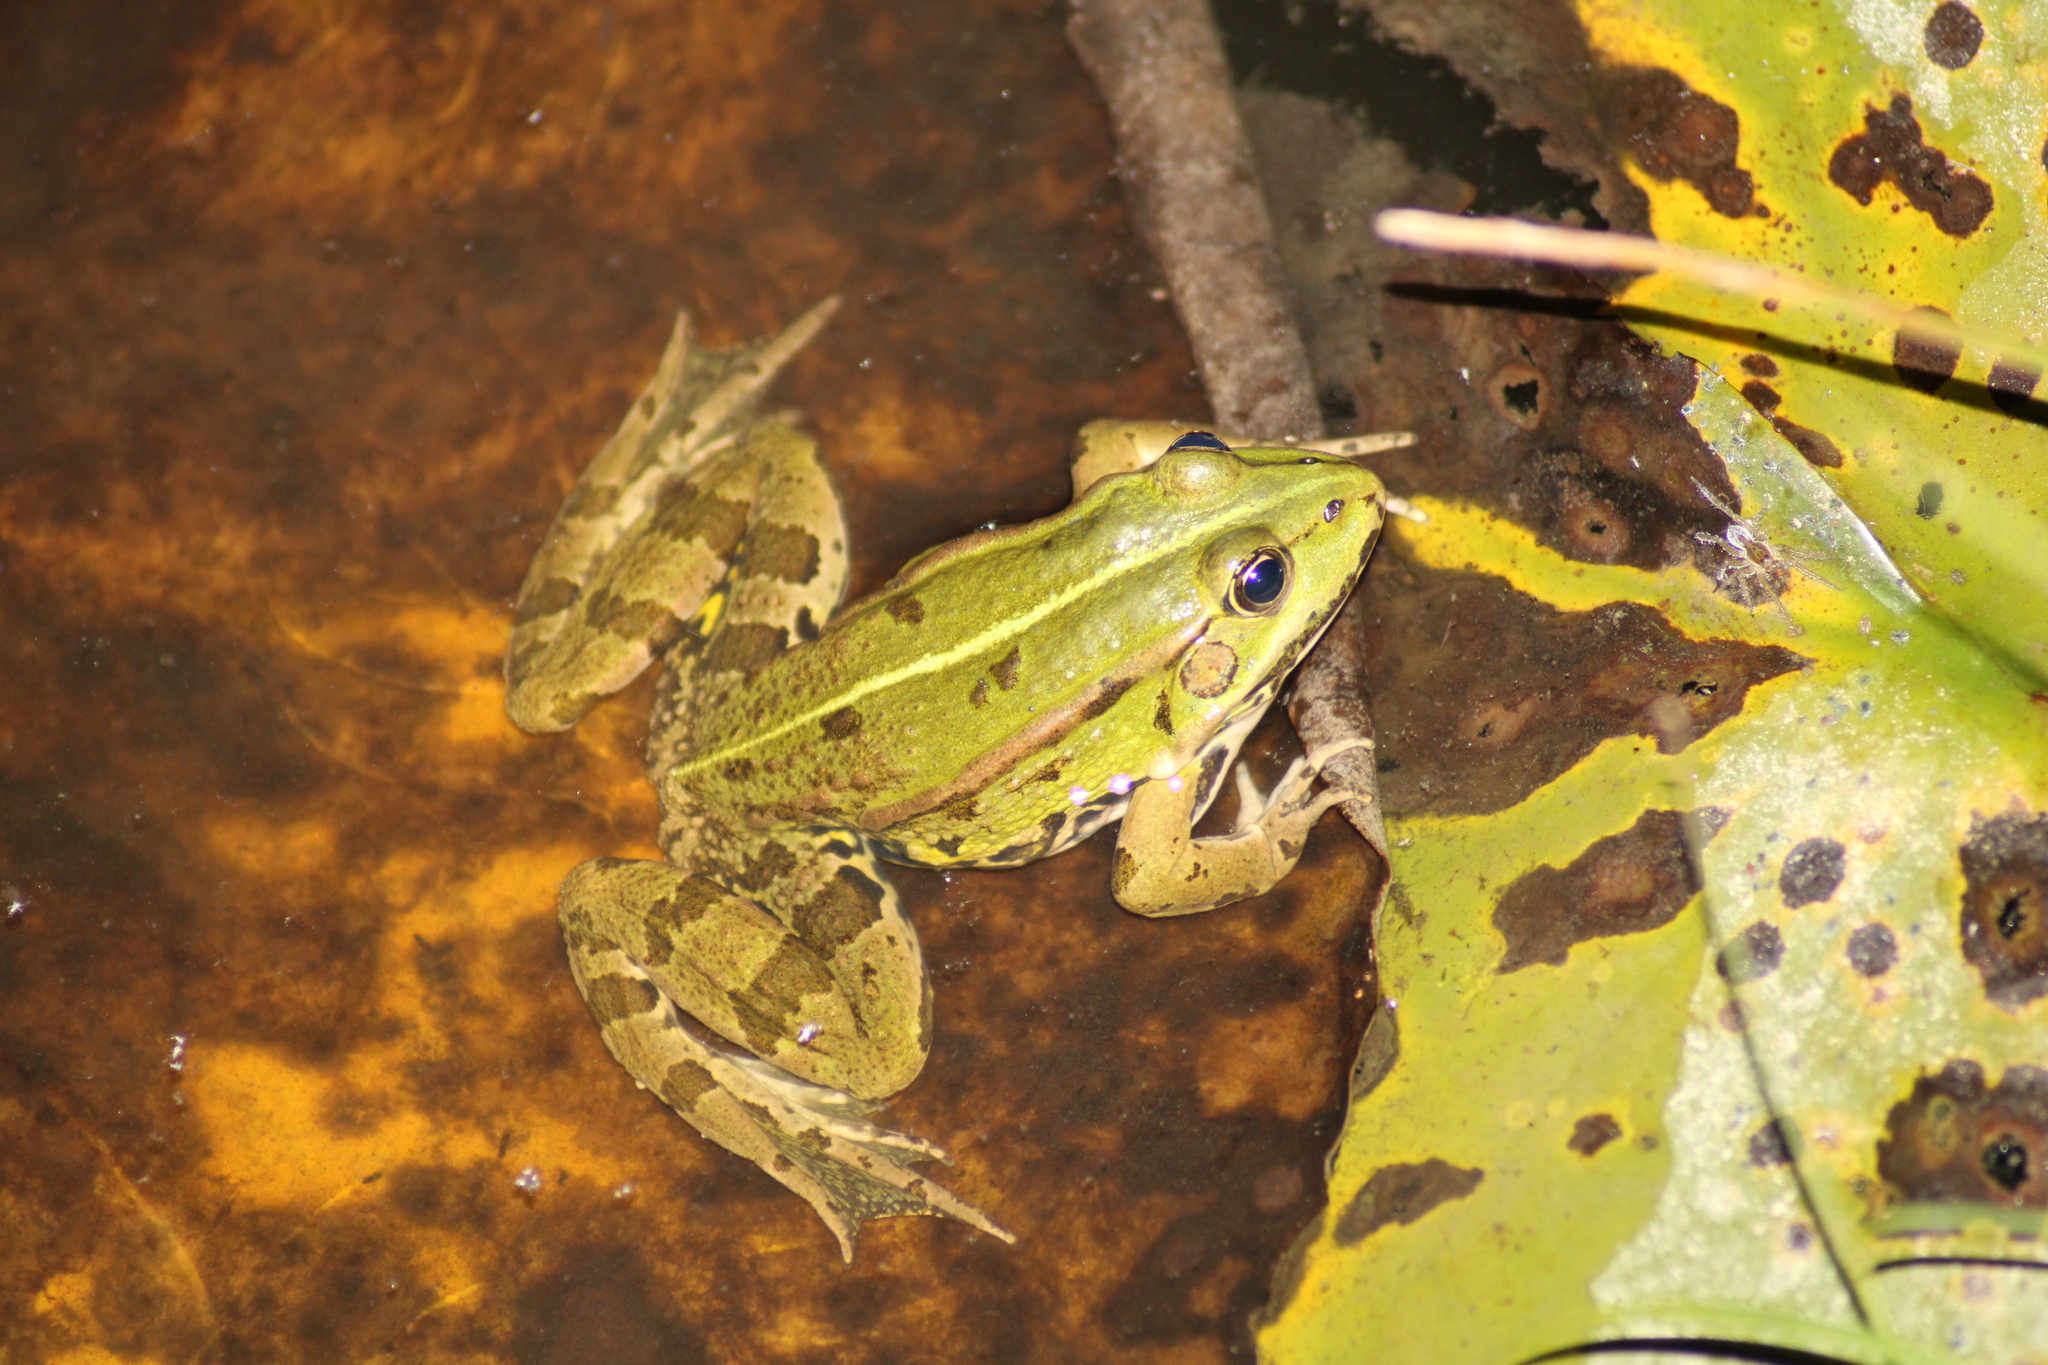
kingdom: Animalia
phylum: Chordata
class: Amphibia
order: Anura
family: Ranidae
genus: Pelophylax
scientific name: Pelophylax
